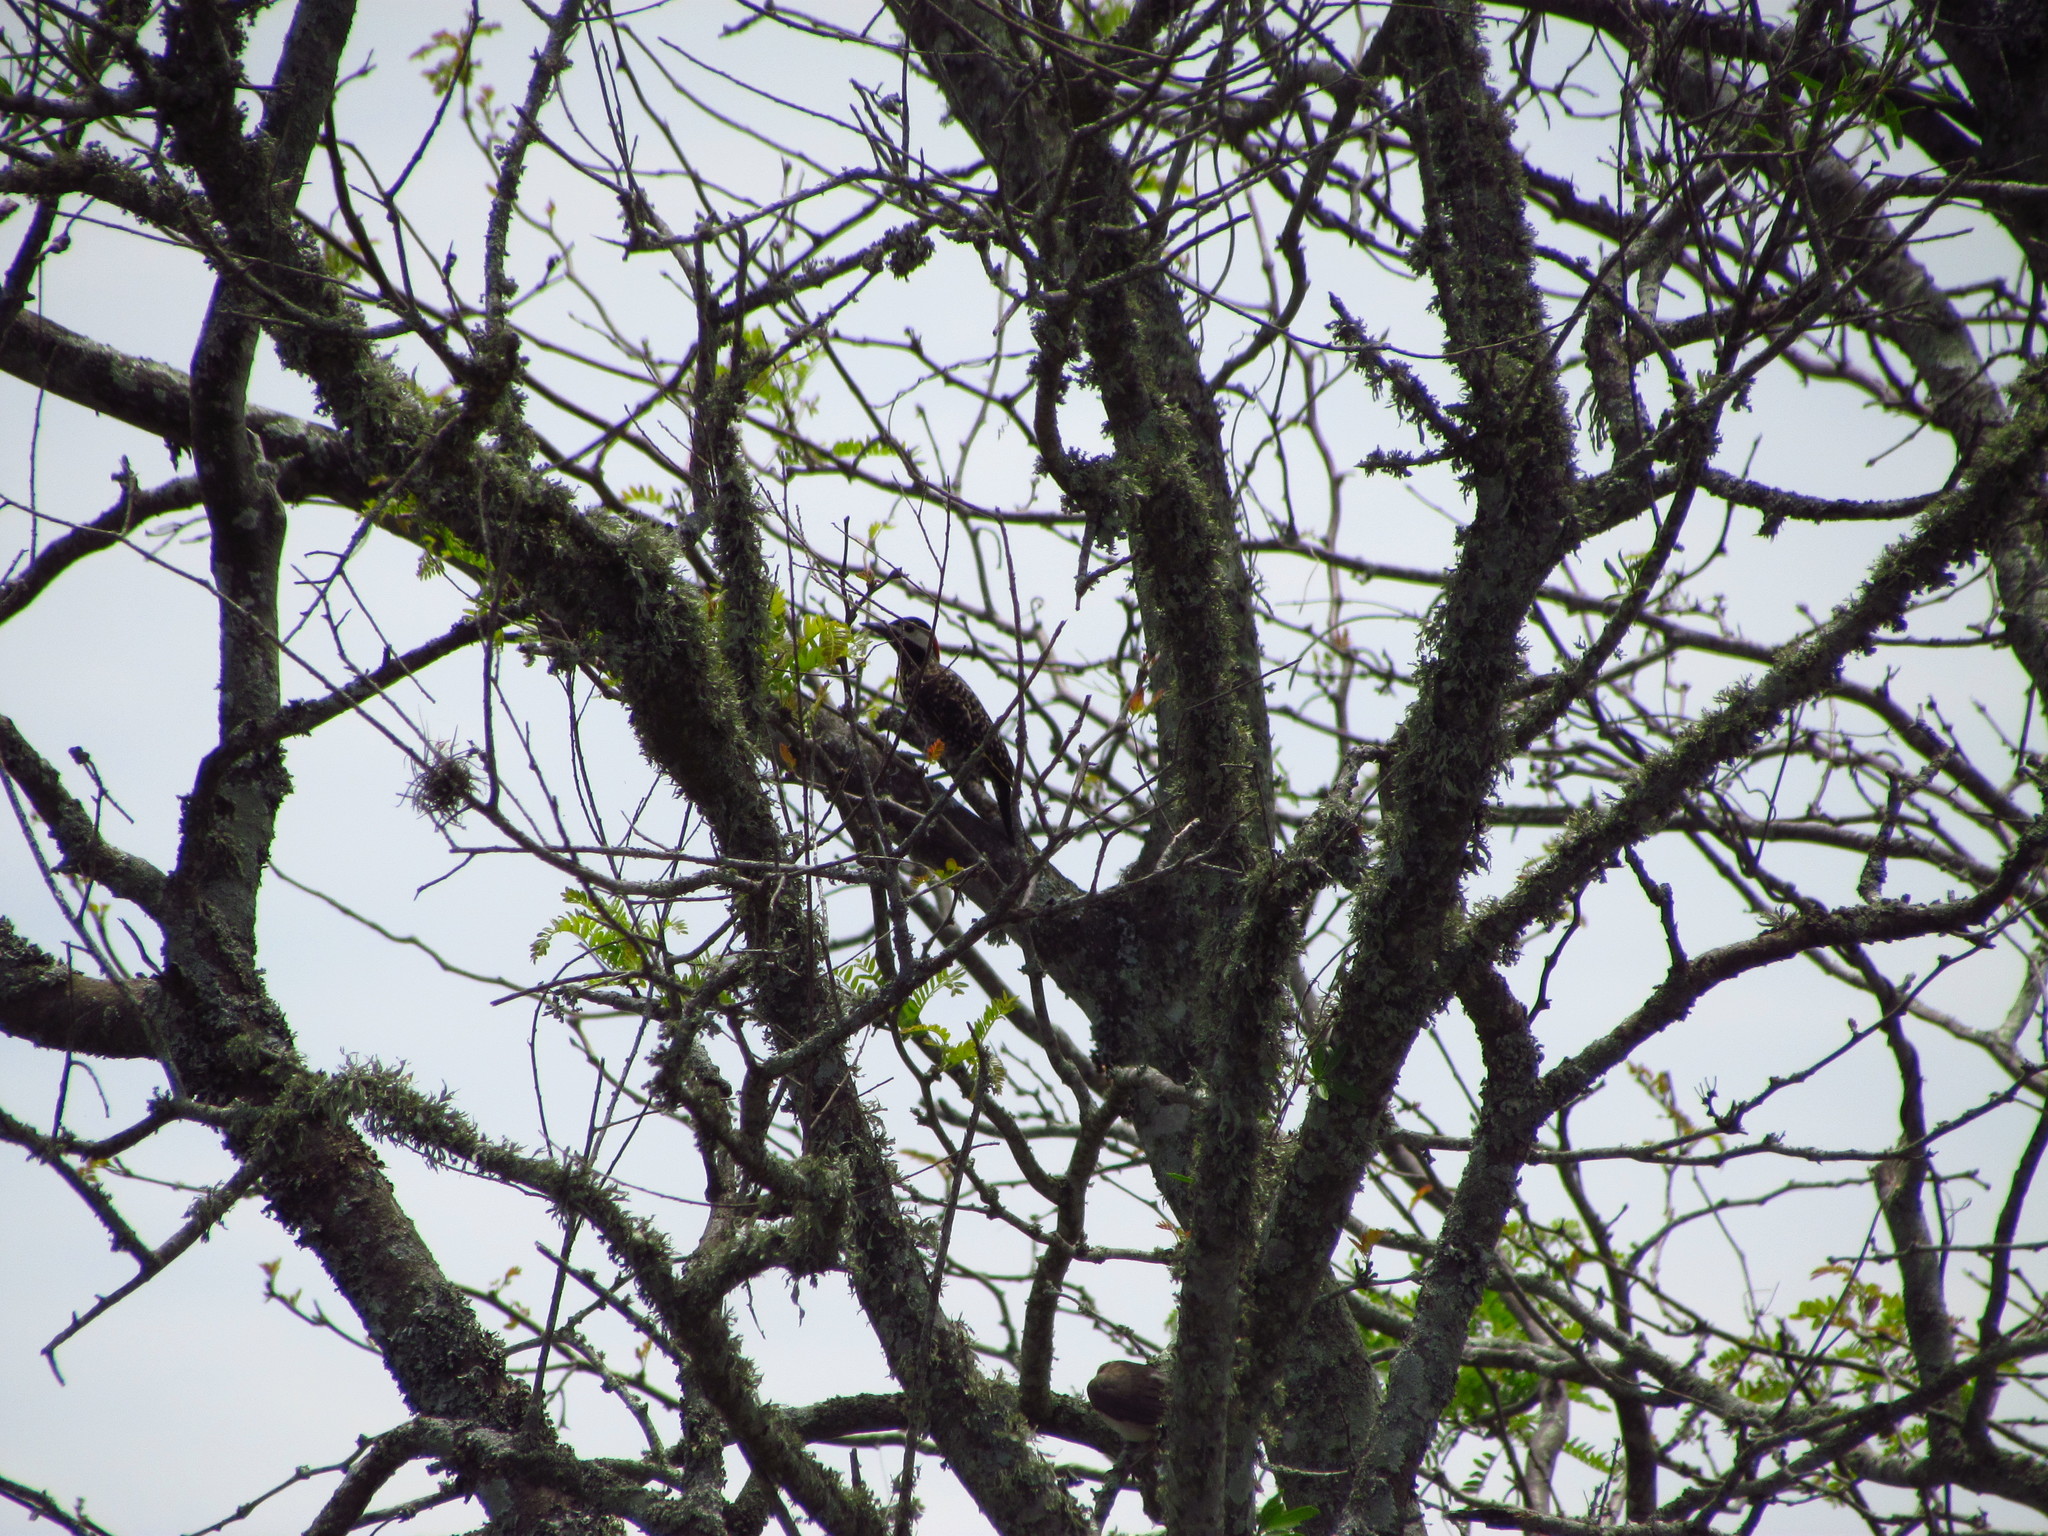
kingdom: Animalia
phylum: Chordata
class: Aves
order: Piciformes
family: Picidae
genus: Colaptes
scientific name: Colaptes melanochloros
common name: Green-barred woodpecker
